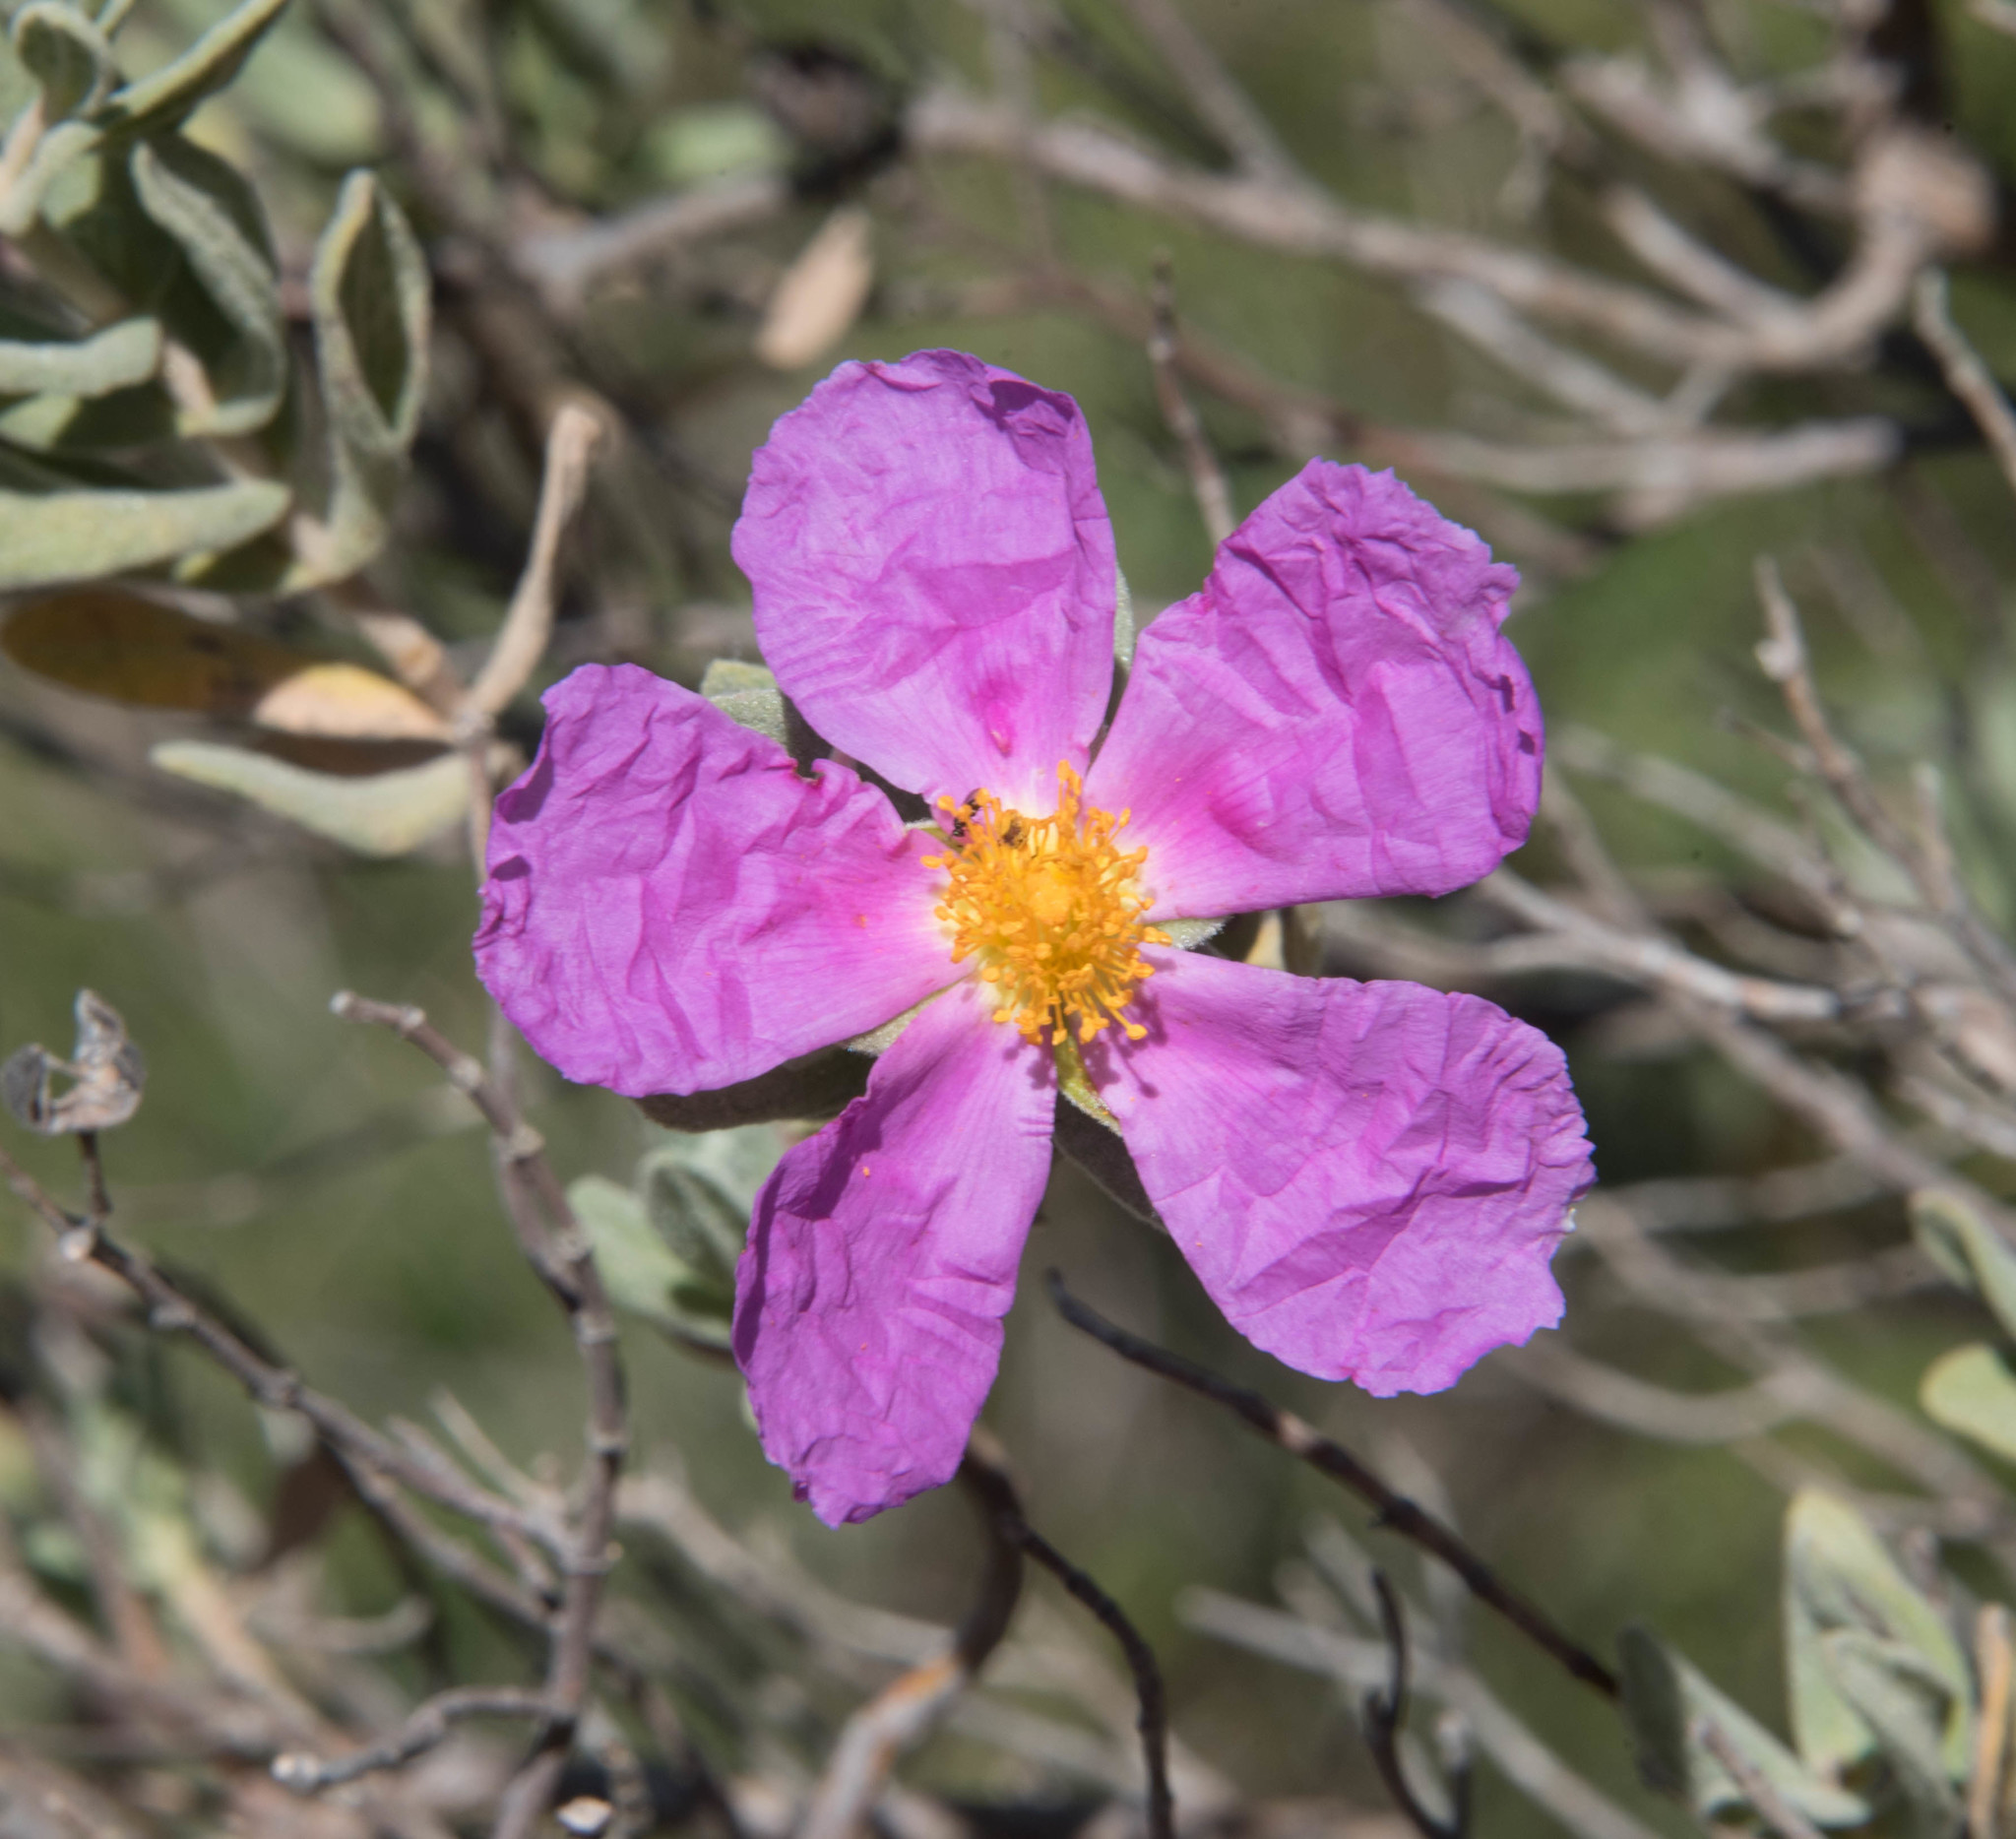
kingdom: Plantae
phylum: Tracheophyta
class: Magnoliopsida
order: Malvales
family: Cistaceae
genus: Cistus
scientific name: Cistus albidus
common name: White-leaf rock-rose
